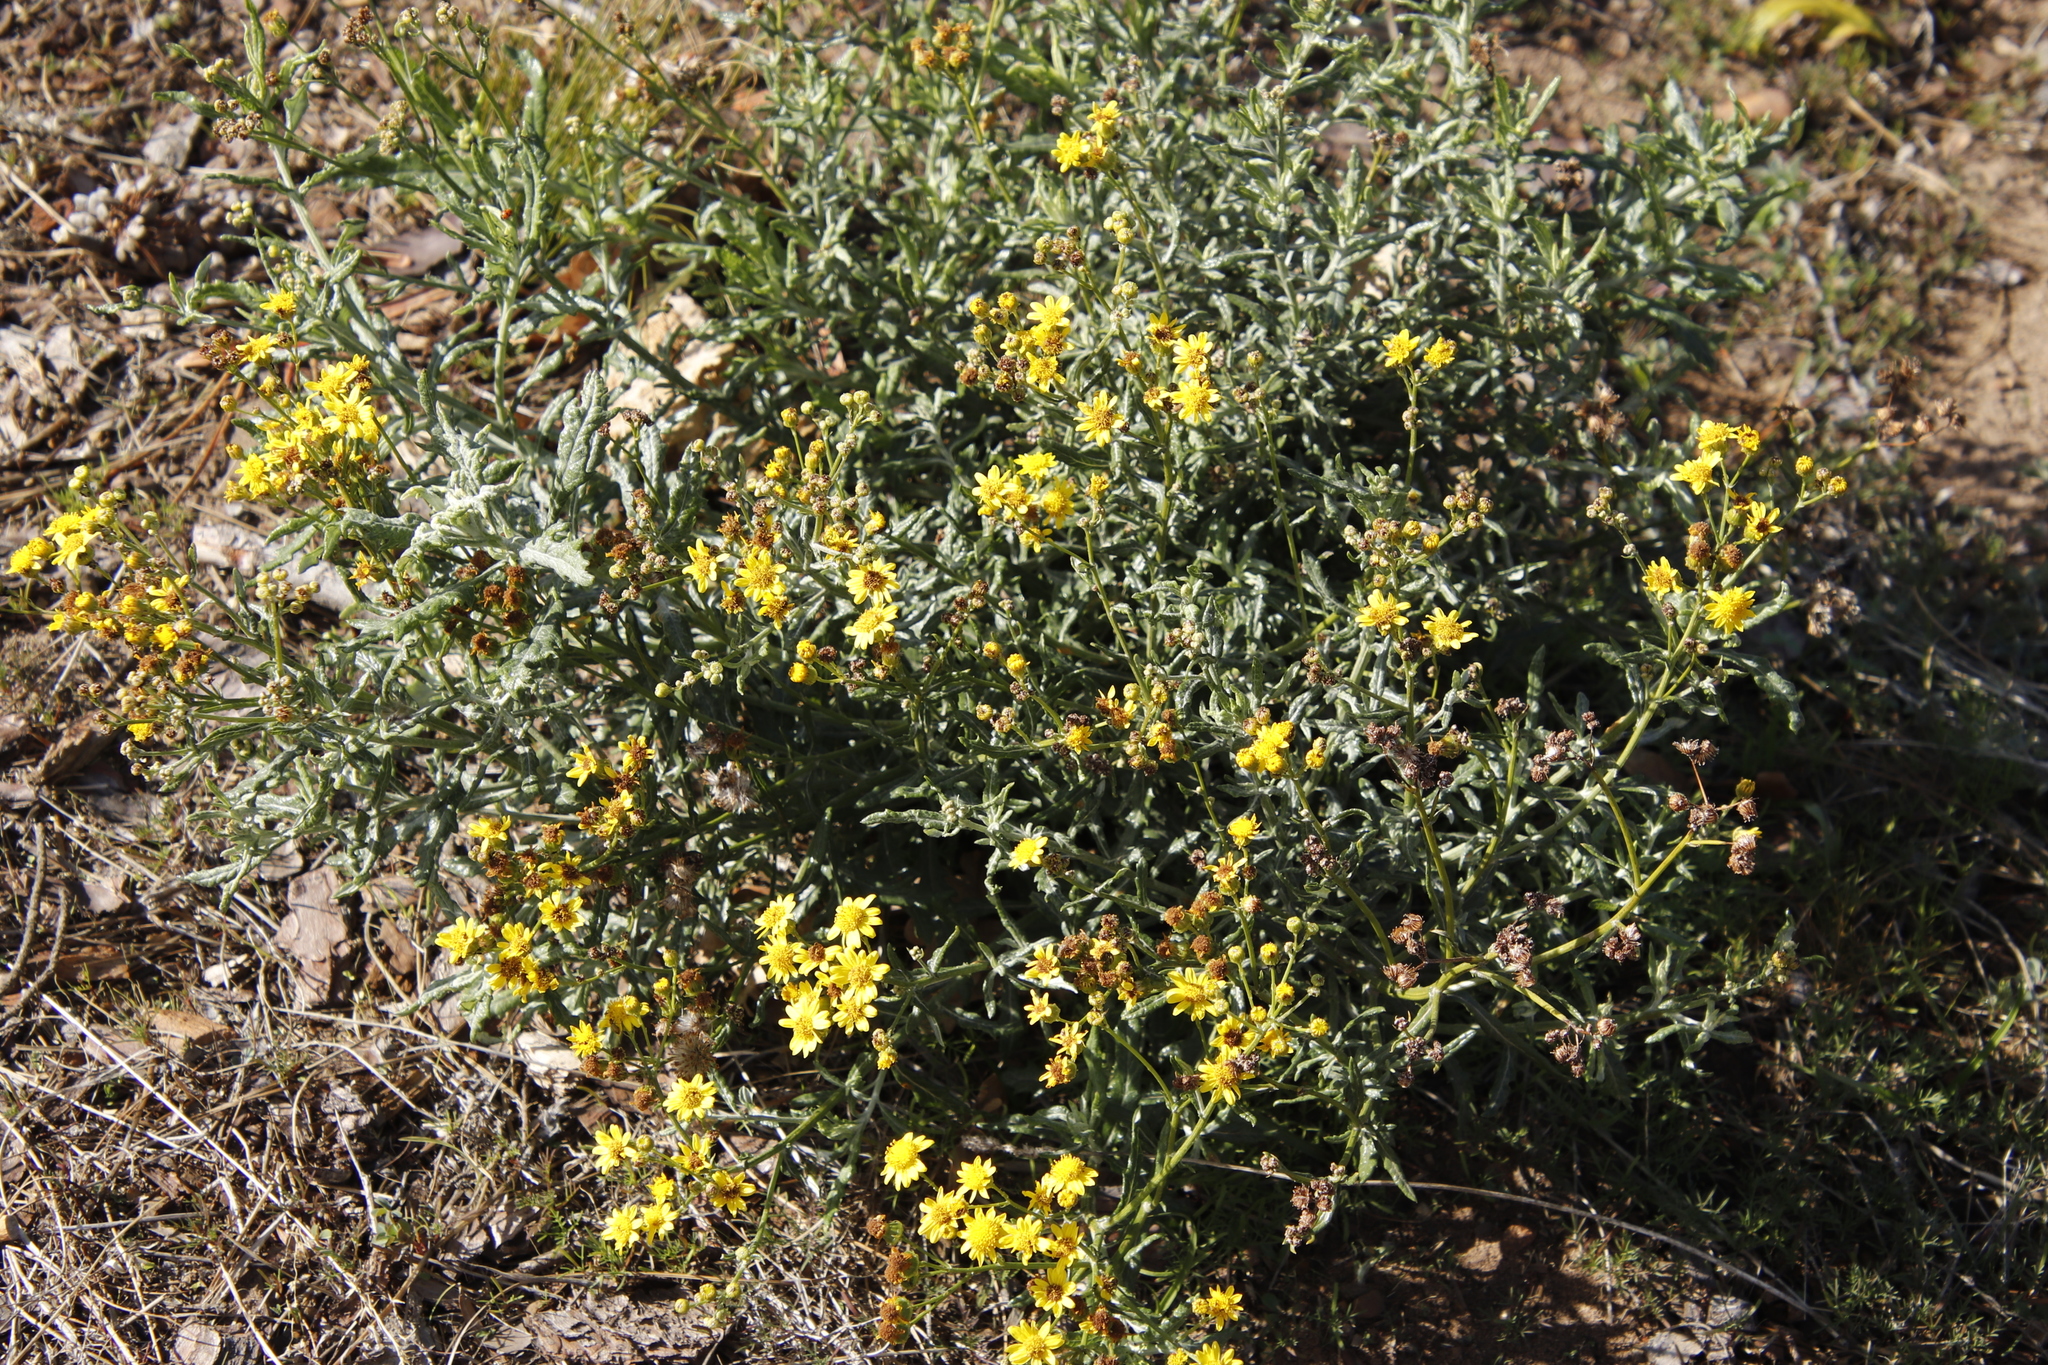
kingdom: Plantae
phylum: Tracheophyta
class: Magnoliopsida
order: Asterales
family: Asteraceae
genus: Senecio
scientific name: Senecio pterophorus
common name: Shoddy ragwort
